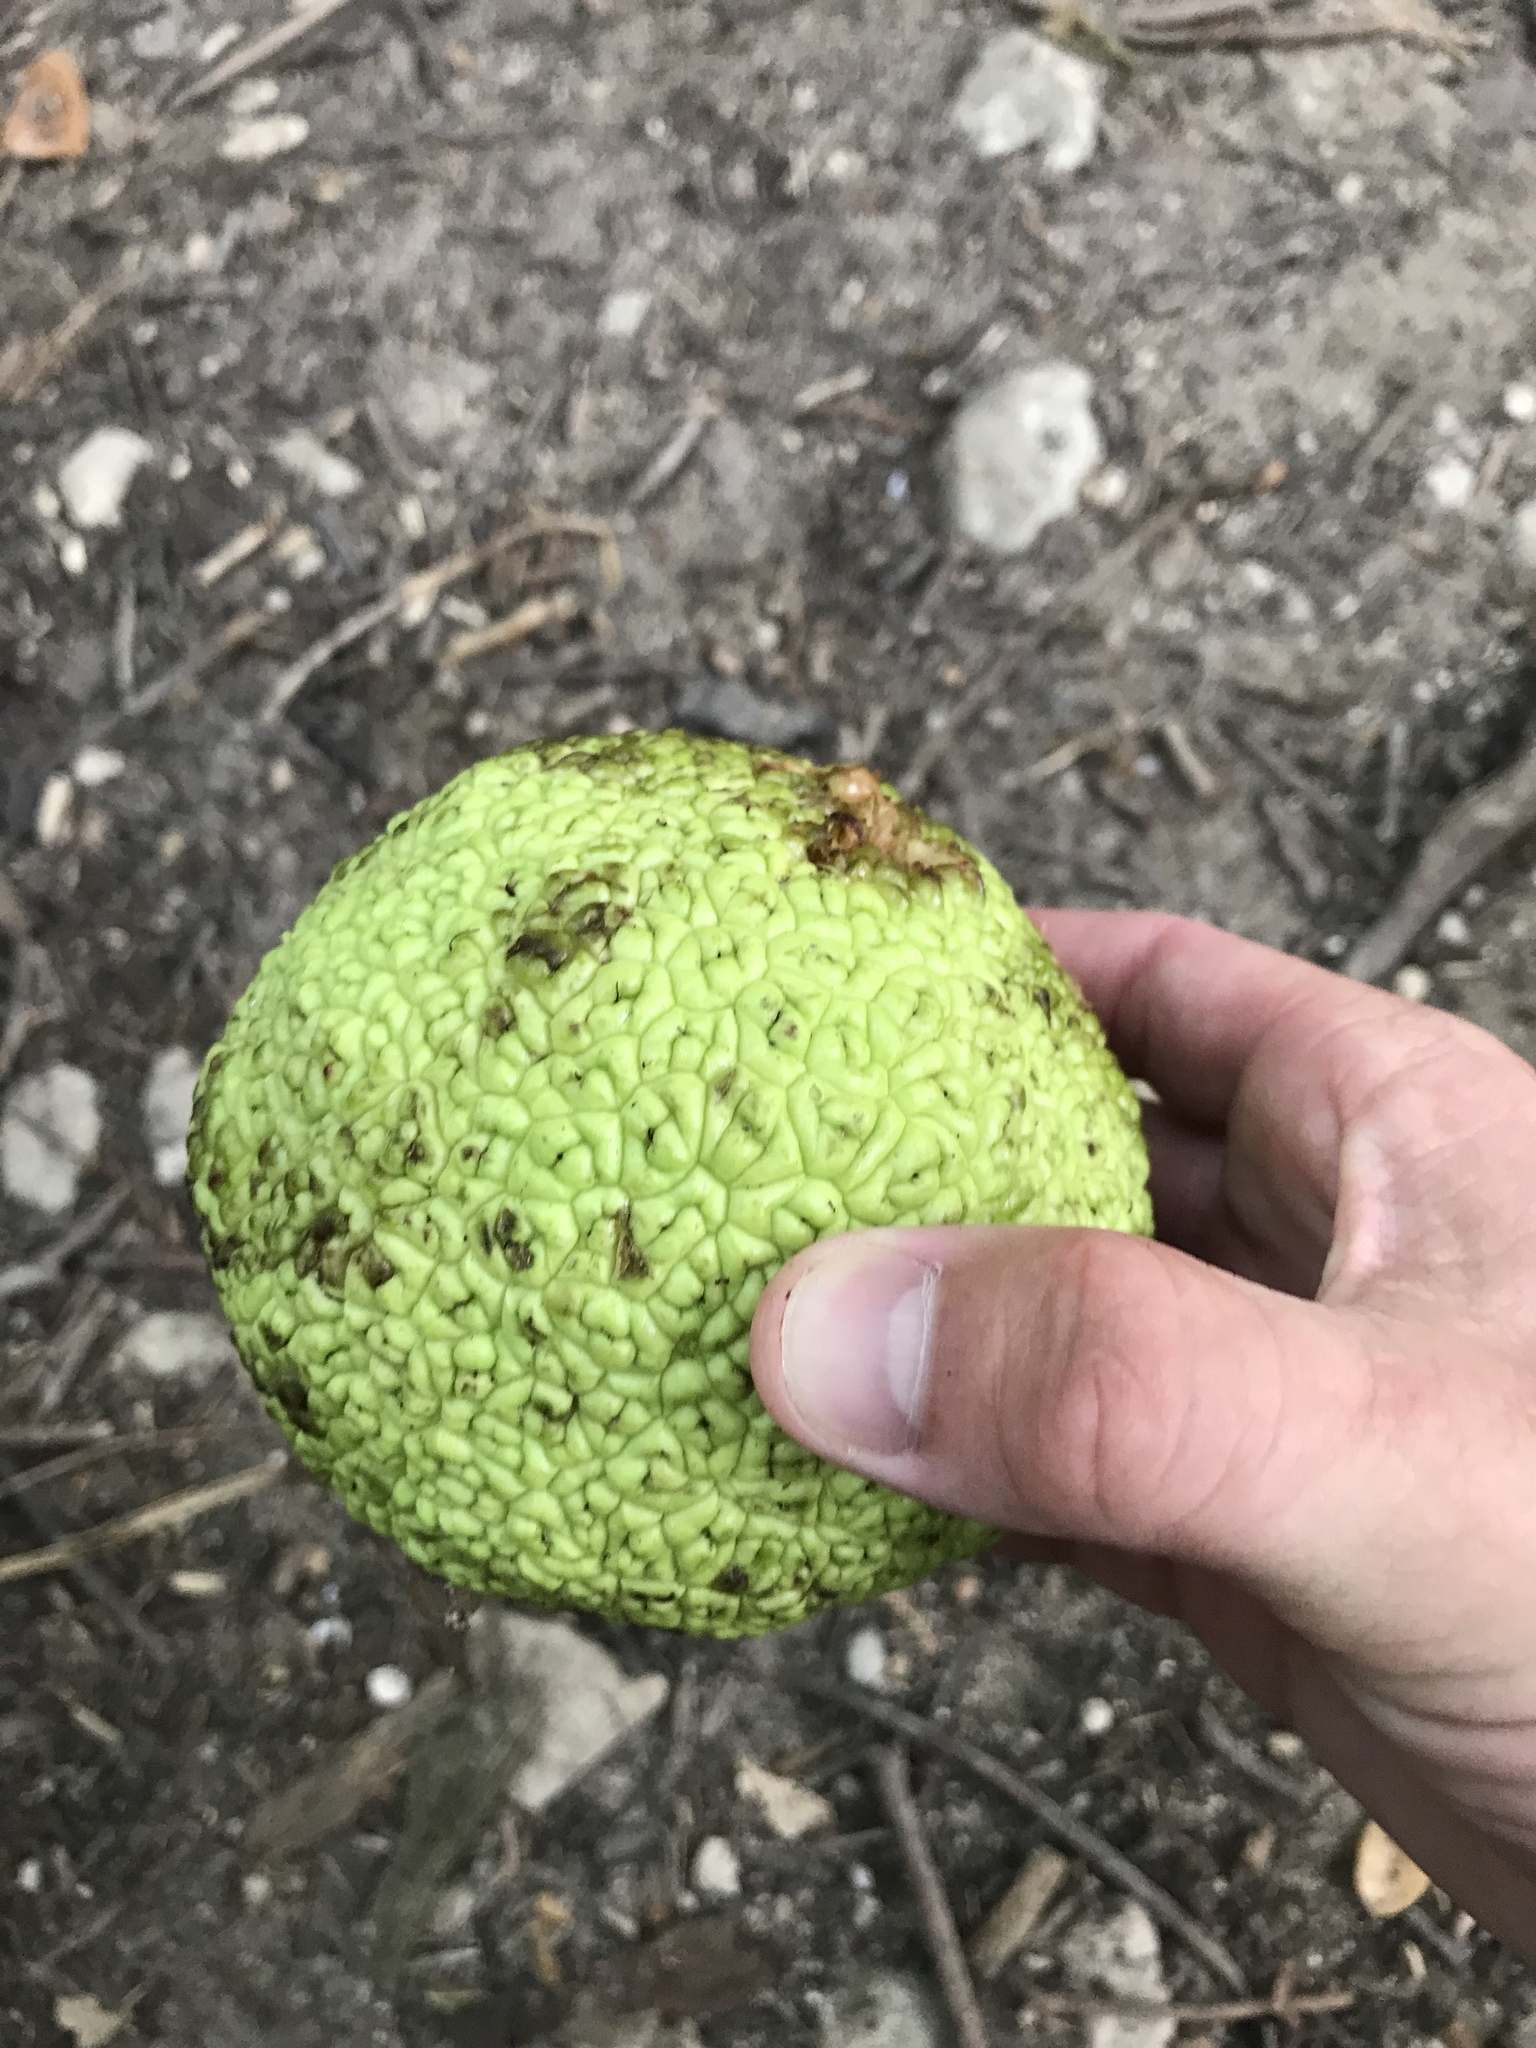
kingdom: Plantae
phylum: Tracheophyta
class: Magnoliopsida
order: Rosales
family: Moraceae
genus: Maclura
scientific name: Maclura pomifera
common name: Osage-orange
